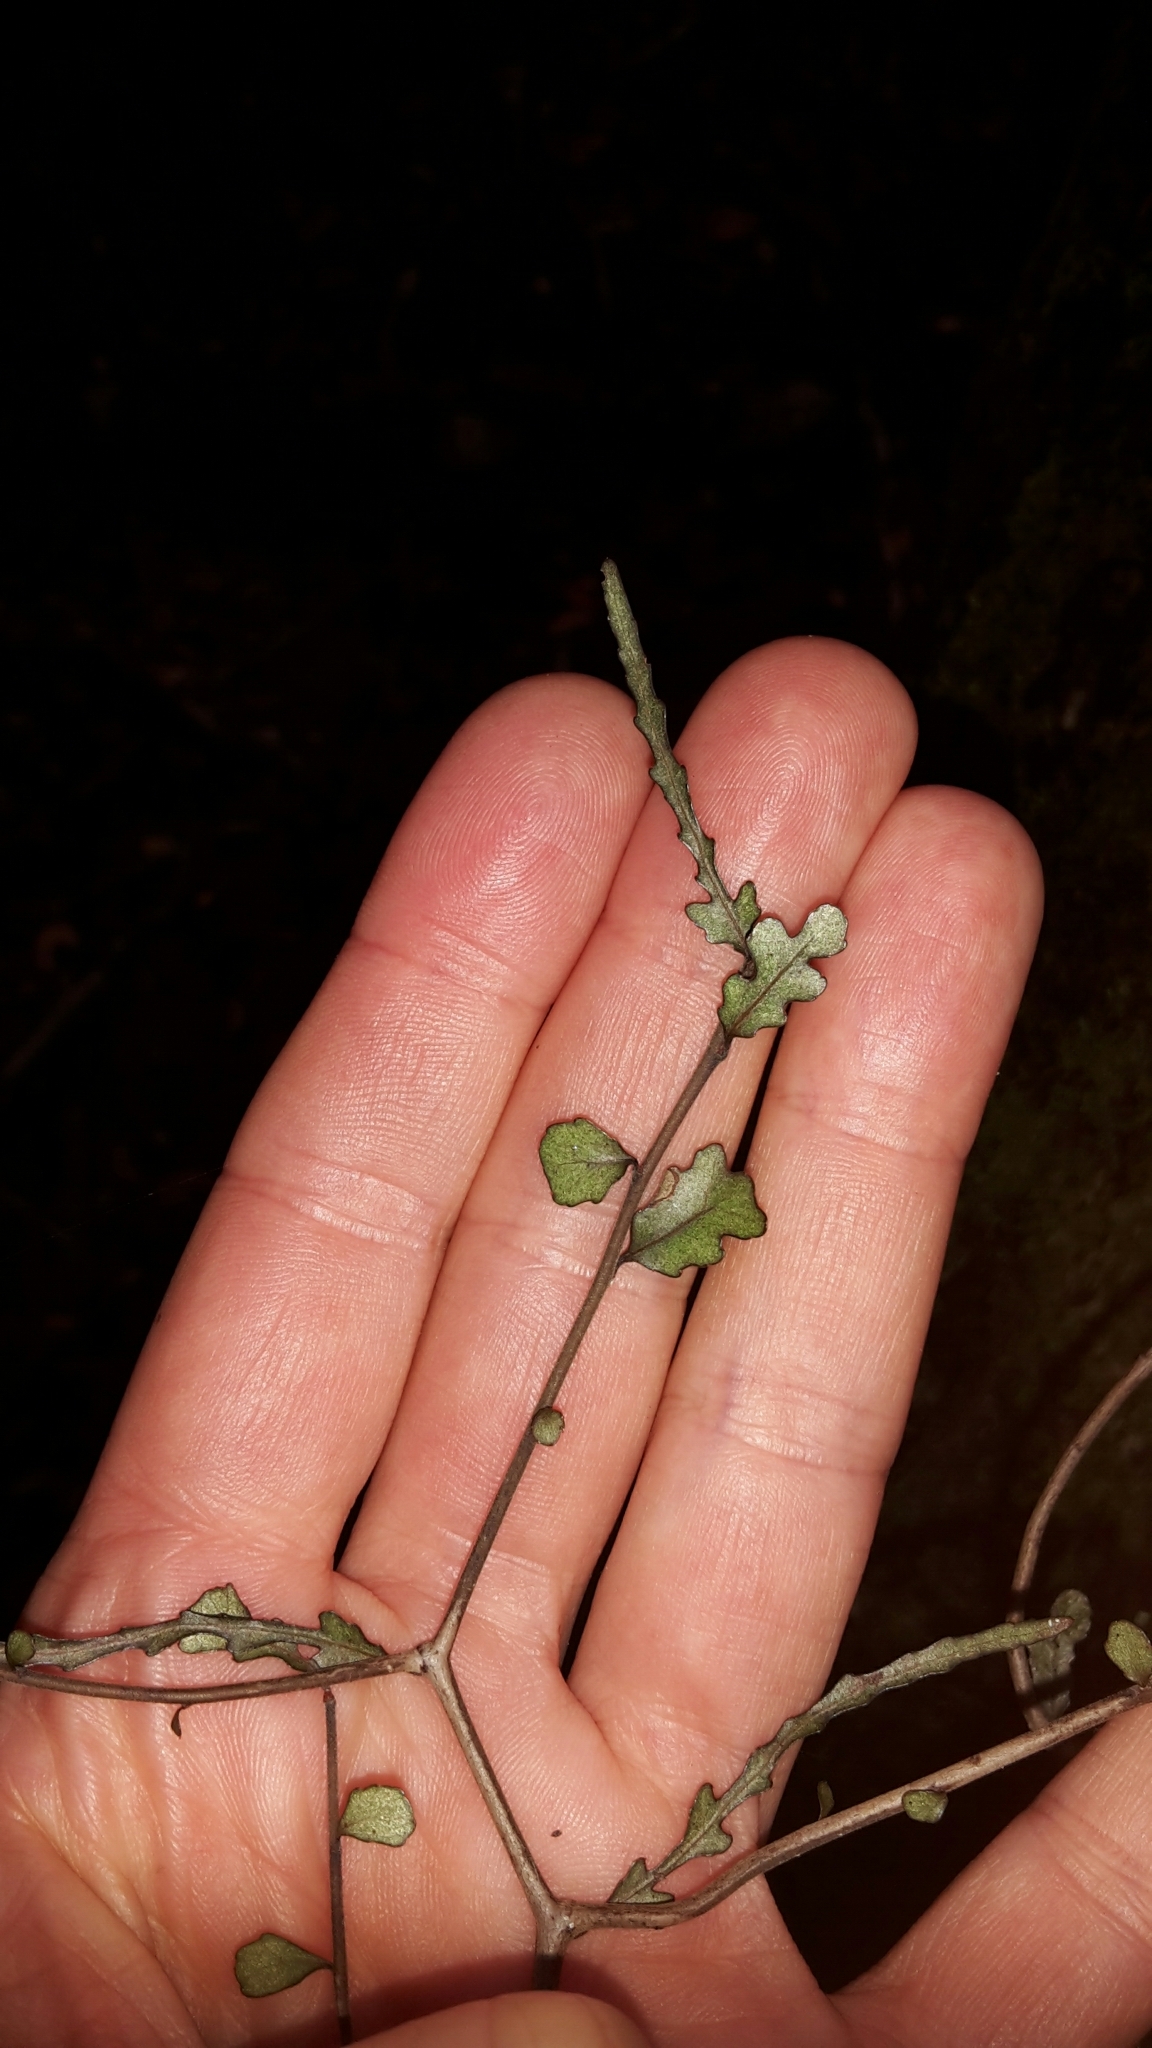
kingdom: Plantae
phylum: Tracheophyta
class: Magnoliopsida
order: Oxalidales
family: Elaeocarpaceae
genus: Elaeocarpus
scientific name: Elaeocarpus hookerianus
